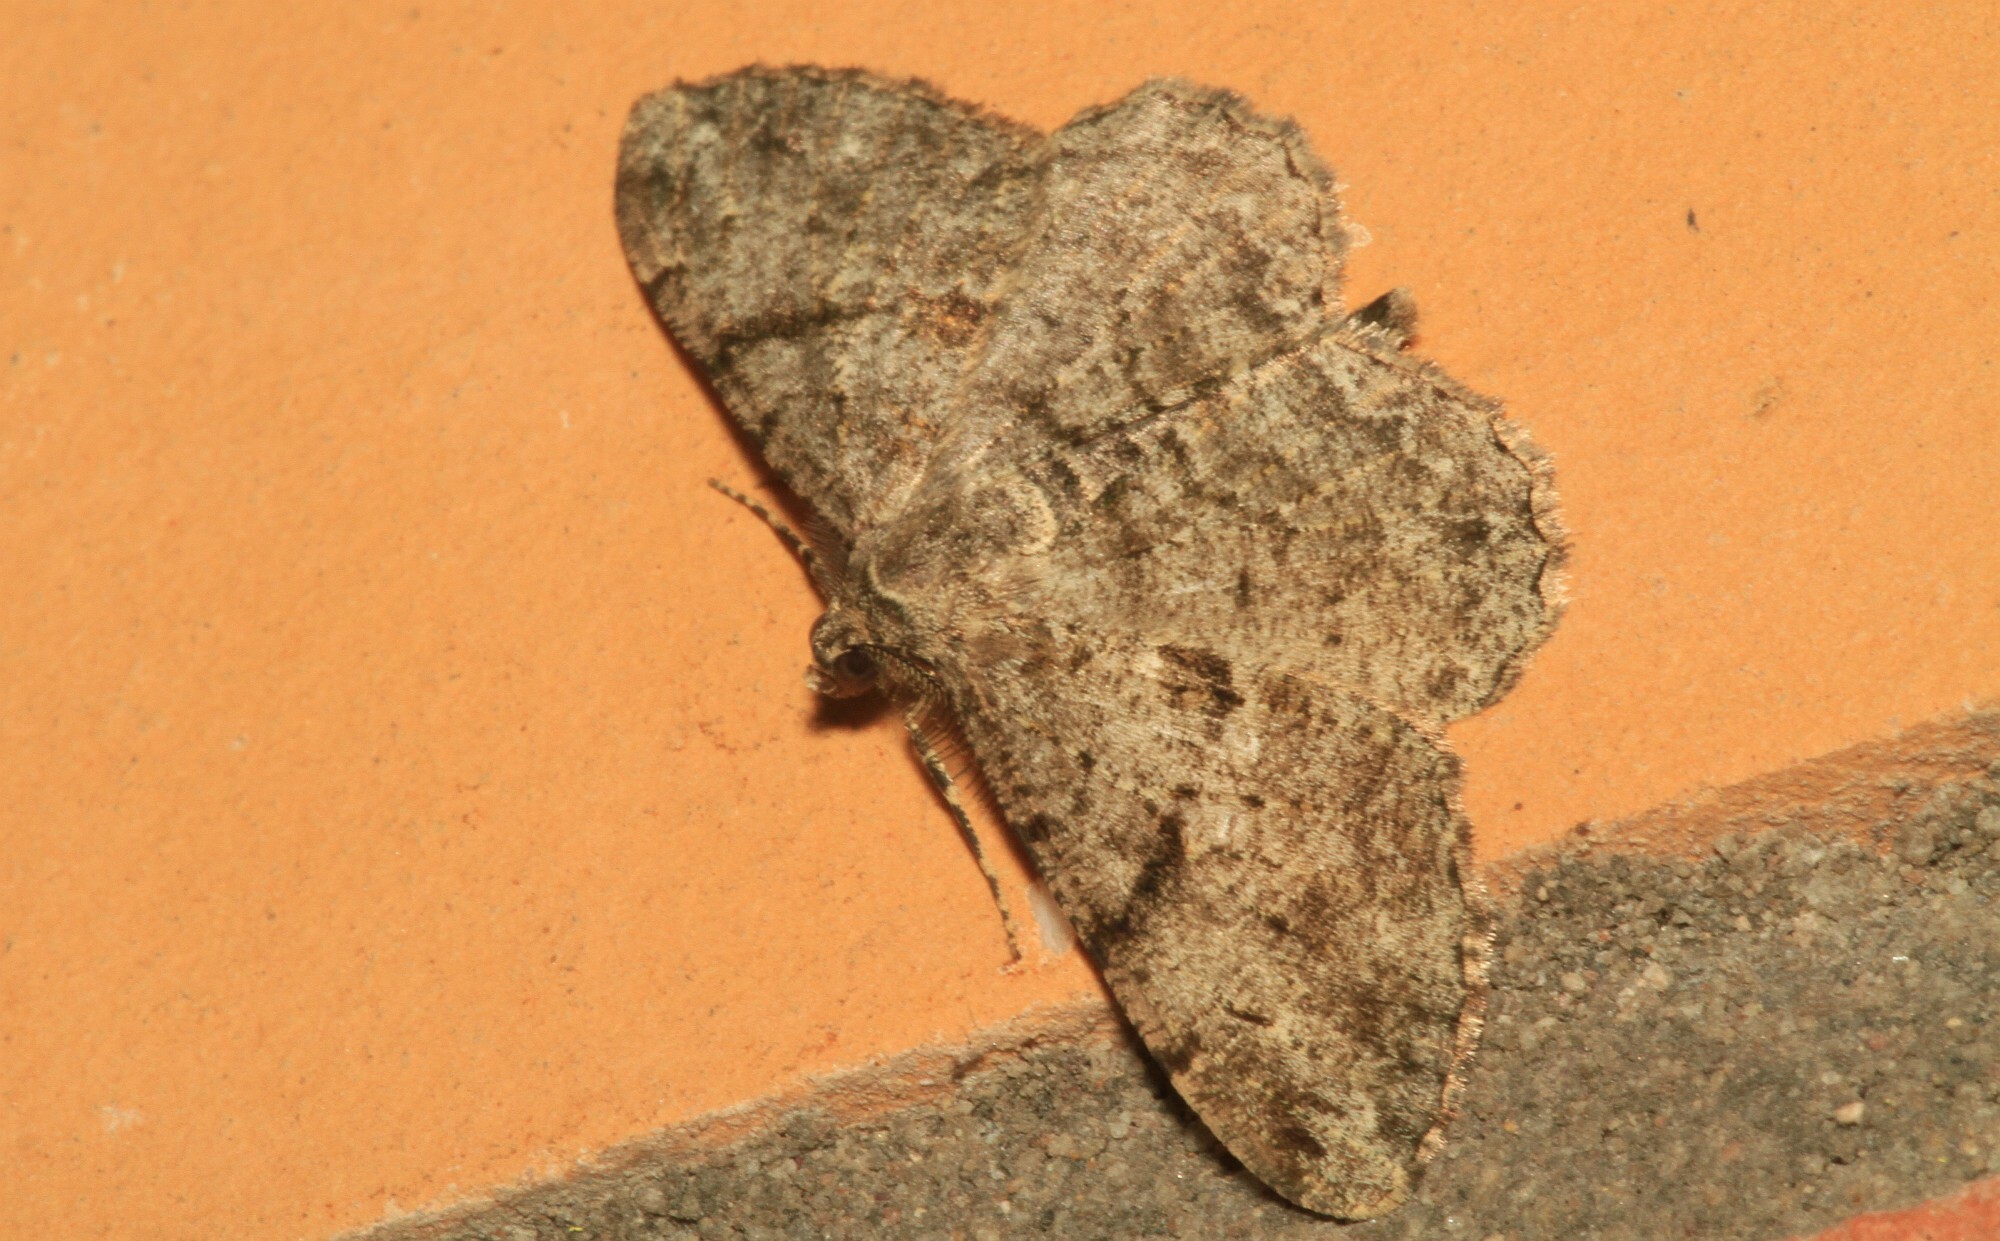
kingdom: Animalia
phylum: Arthropoda
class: Insecta
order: Lepidoptera
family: Geometridae
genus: Peribatodes
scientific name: Peribatodes rhomboidaria
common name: Willow beauty
